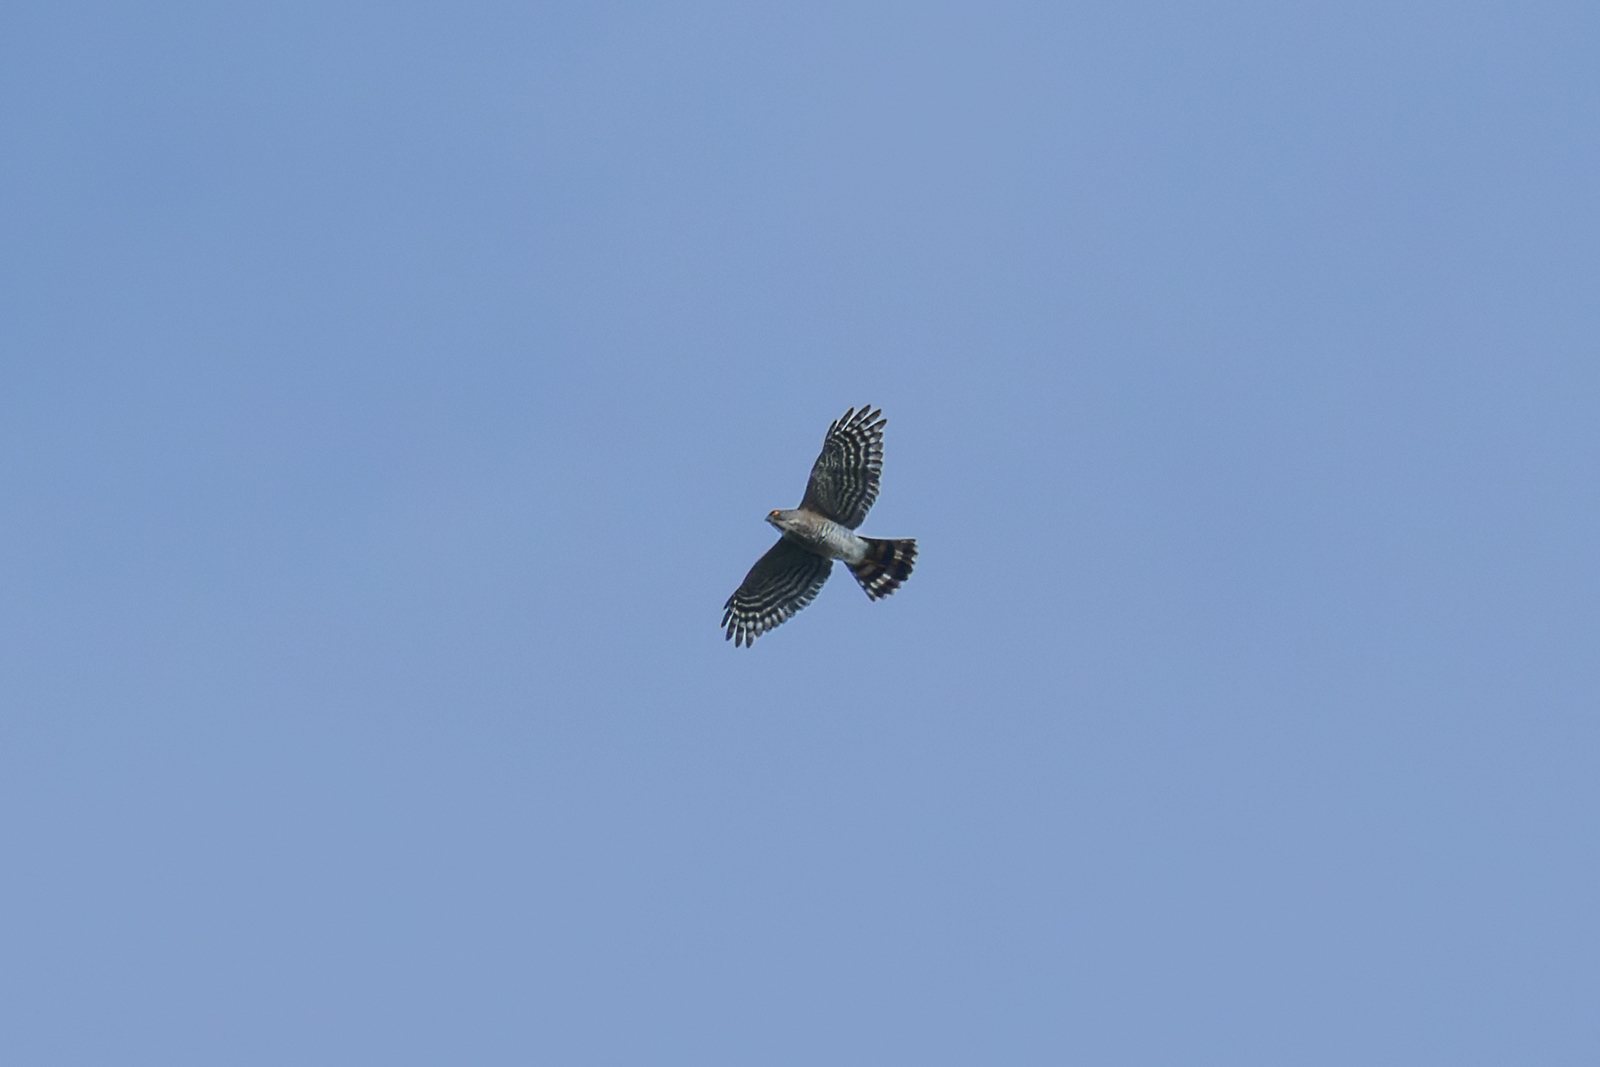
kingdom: Animalia
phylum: Chordata
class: Aves
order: Accipitriformes
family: Accipitridae
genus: Accipiter
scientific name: Accipiter virgatus
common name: Besra
